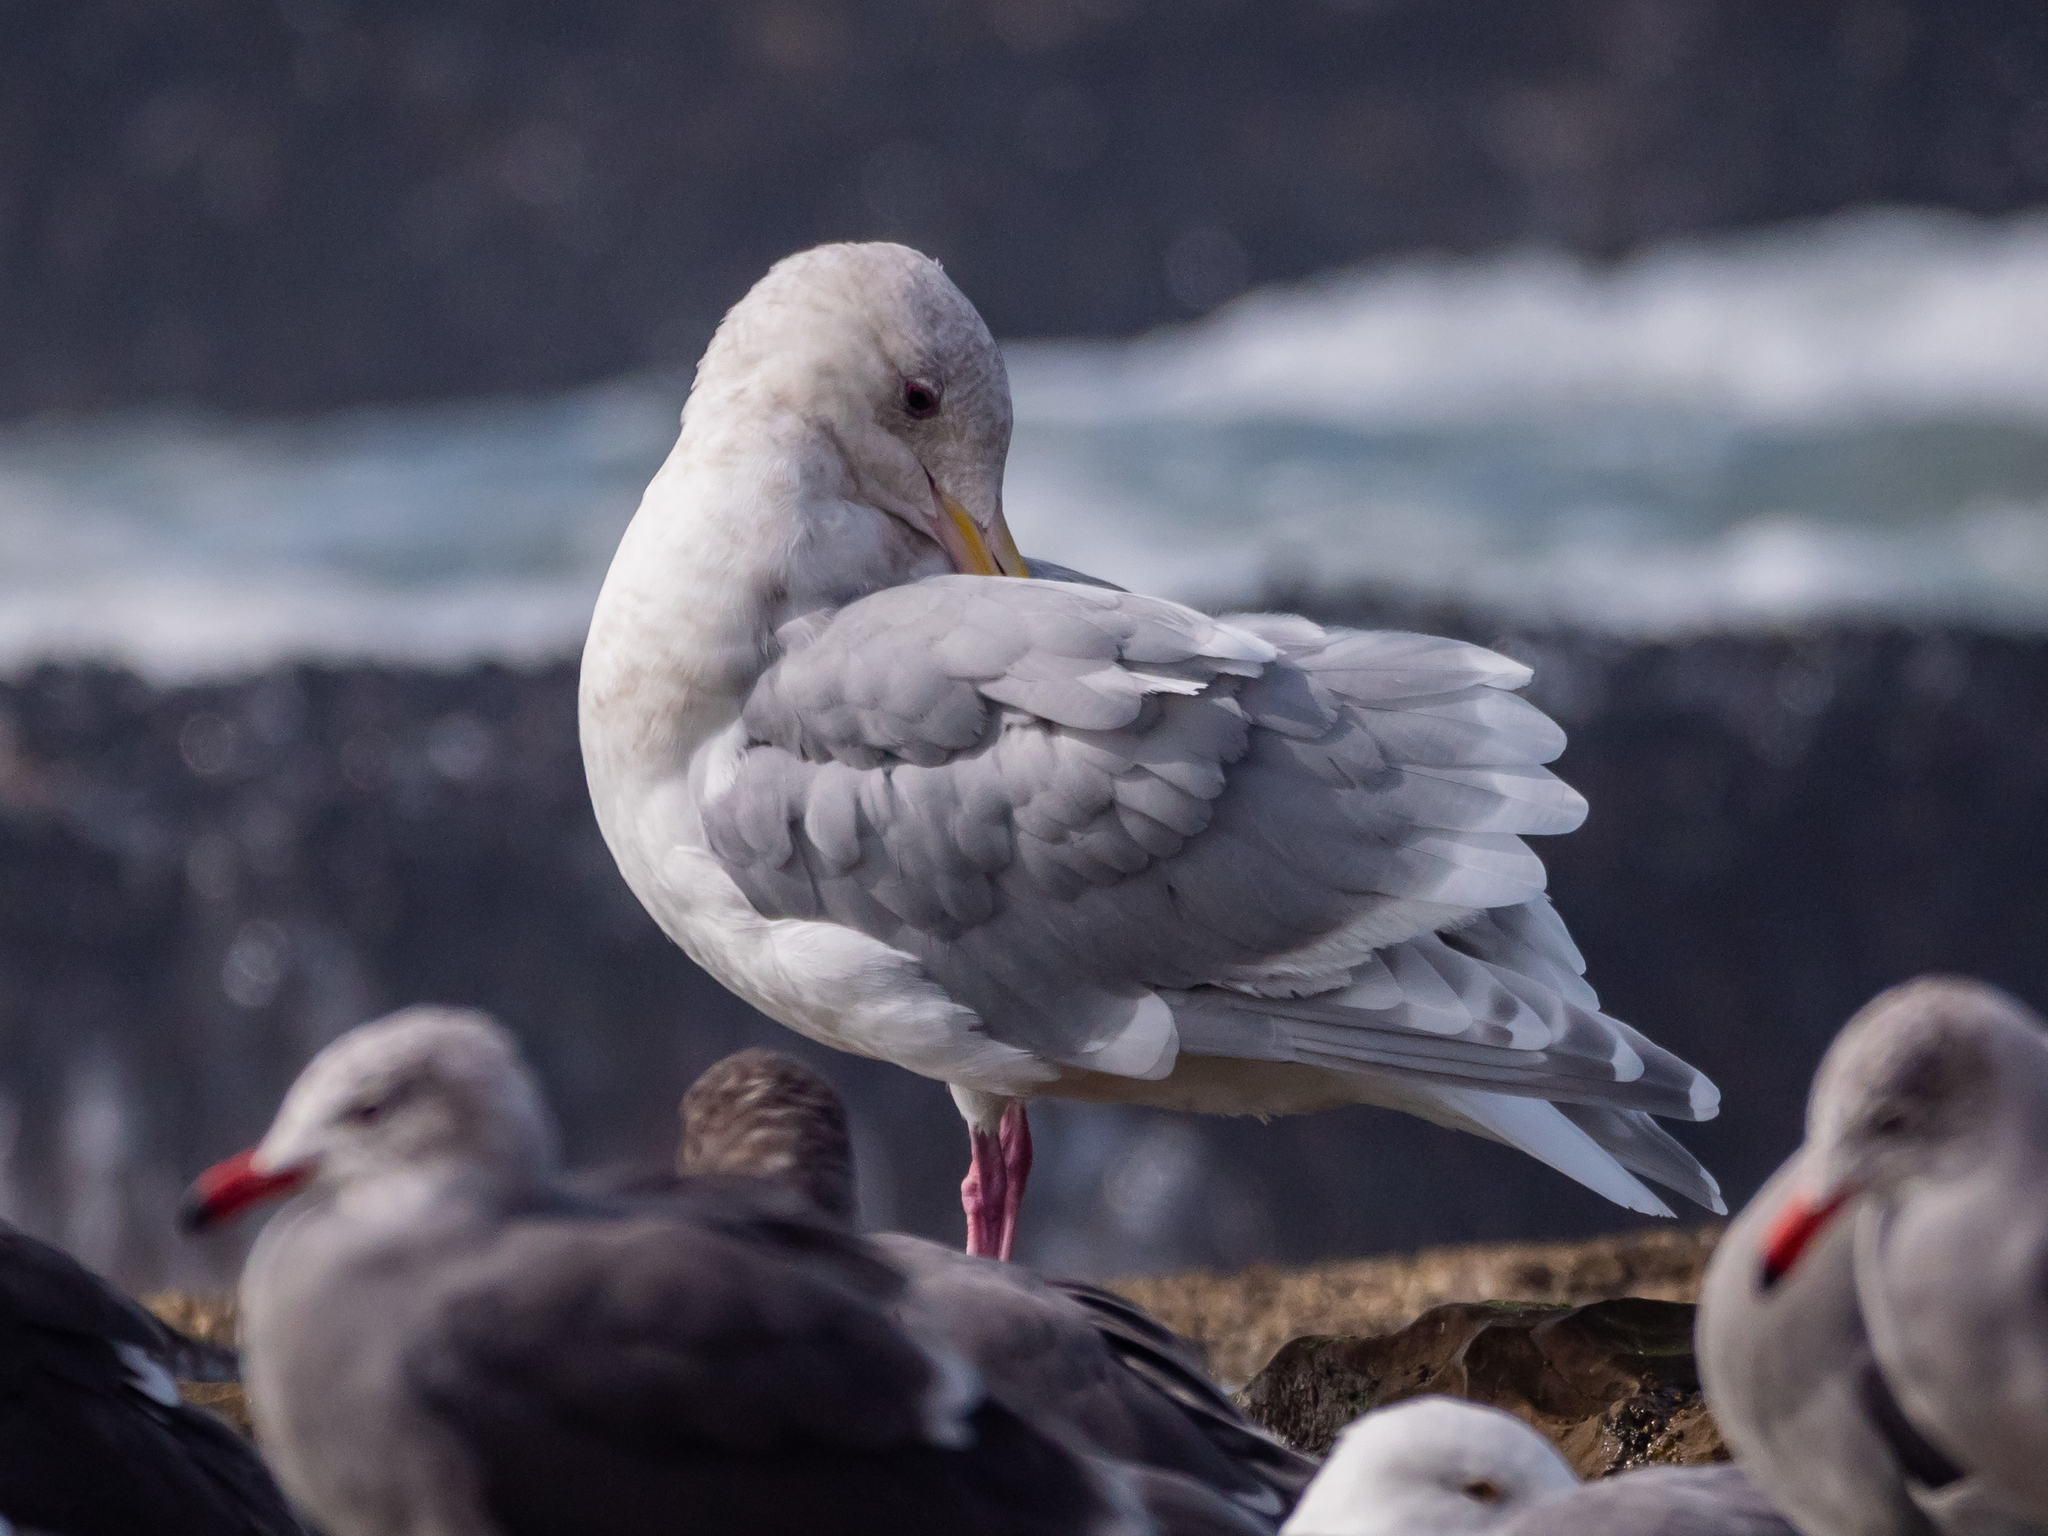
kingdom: Animalia
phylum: Chordata
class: Aves
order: Charadriiformes
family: Laridae
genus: Larus
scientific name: Larus
